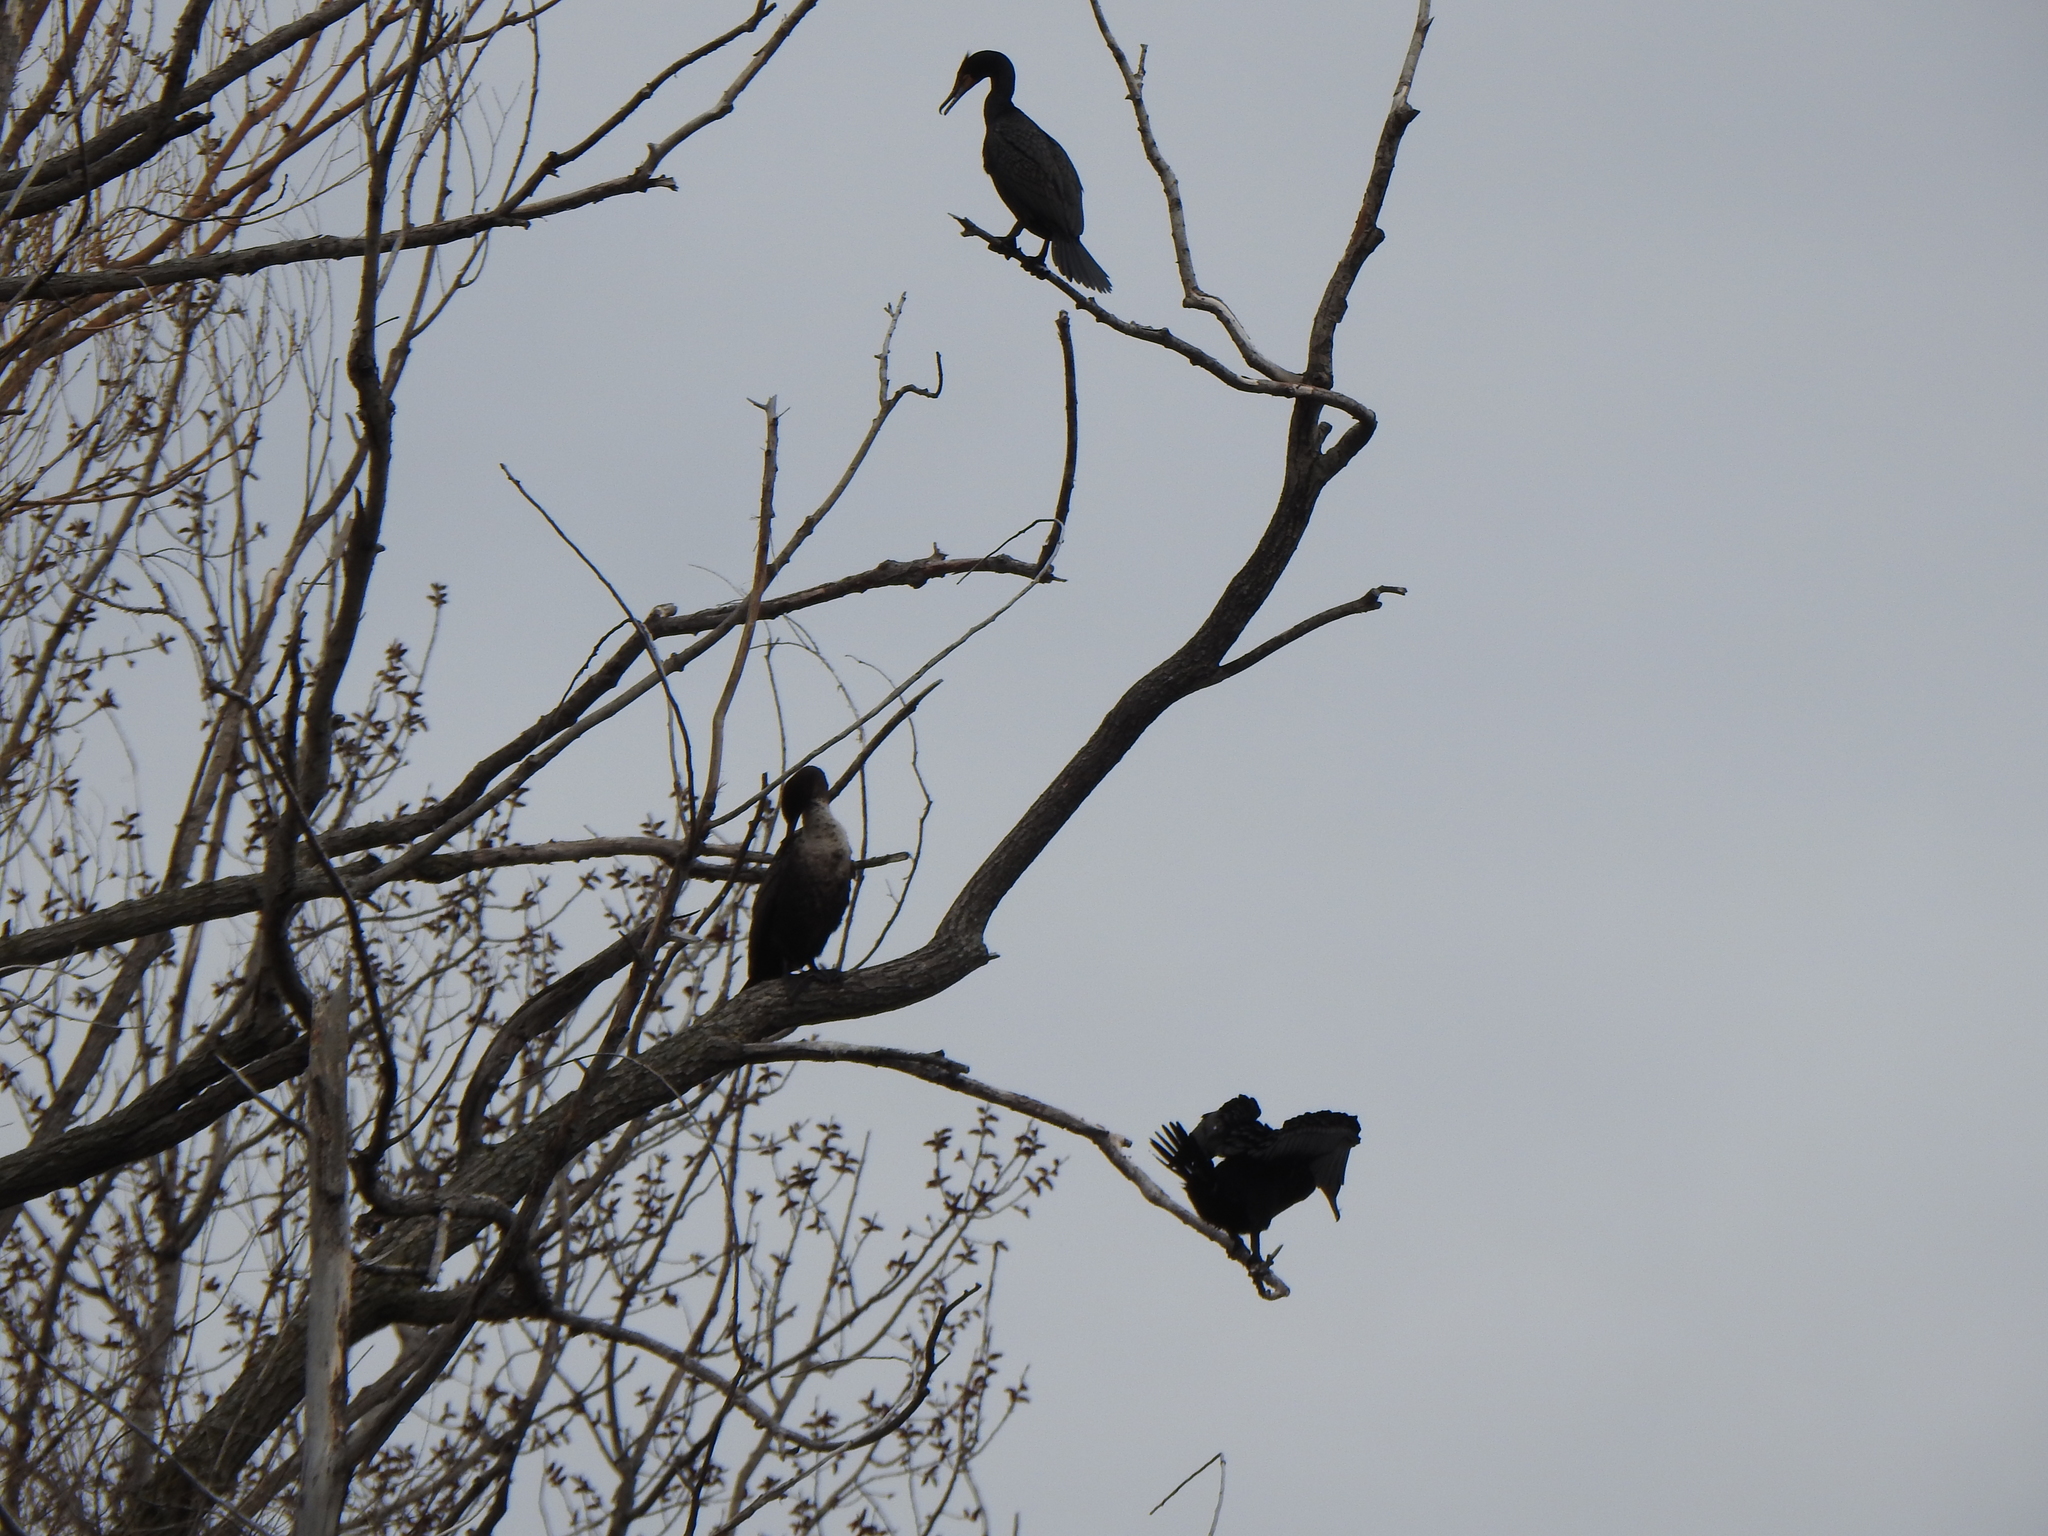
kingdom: Animalia
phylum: Chordata
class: Aves
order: Suliformes
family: Phalacrocoracidae
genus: Phalacrocorax
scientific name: Phalacrocorax auritus
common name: Double-crested cormorant
